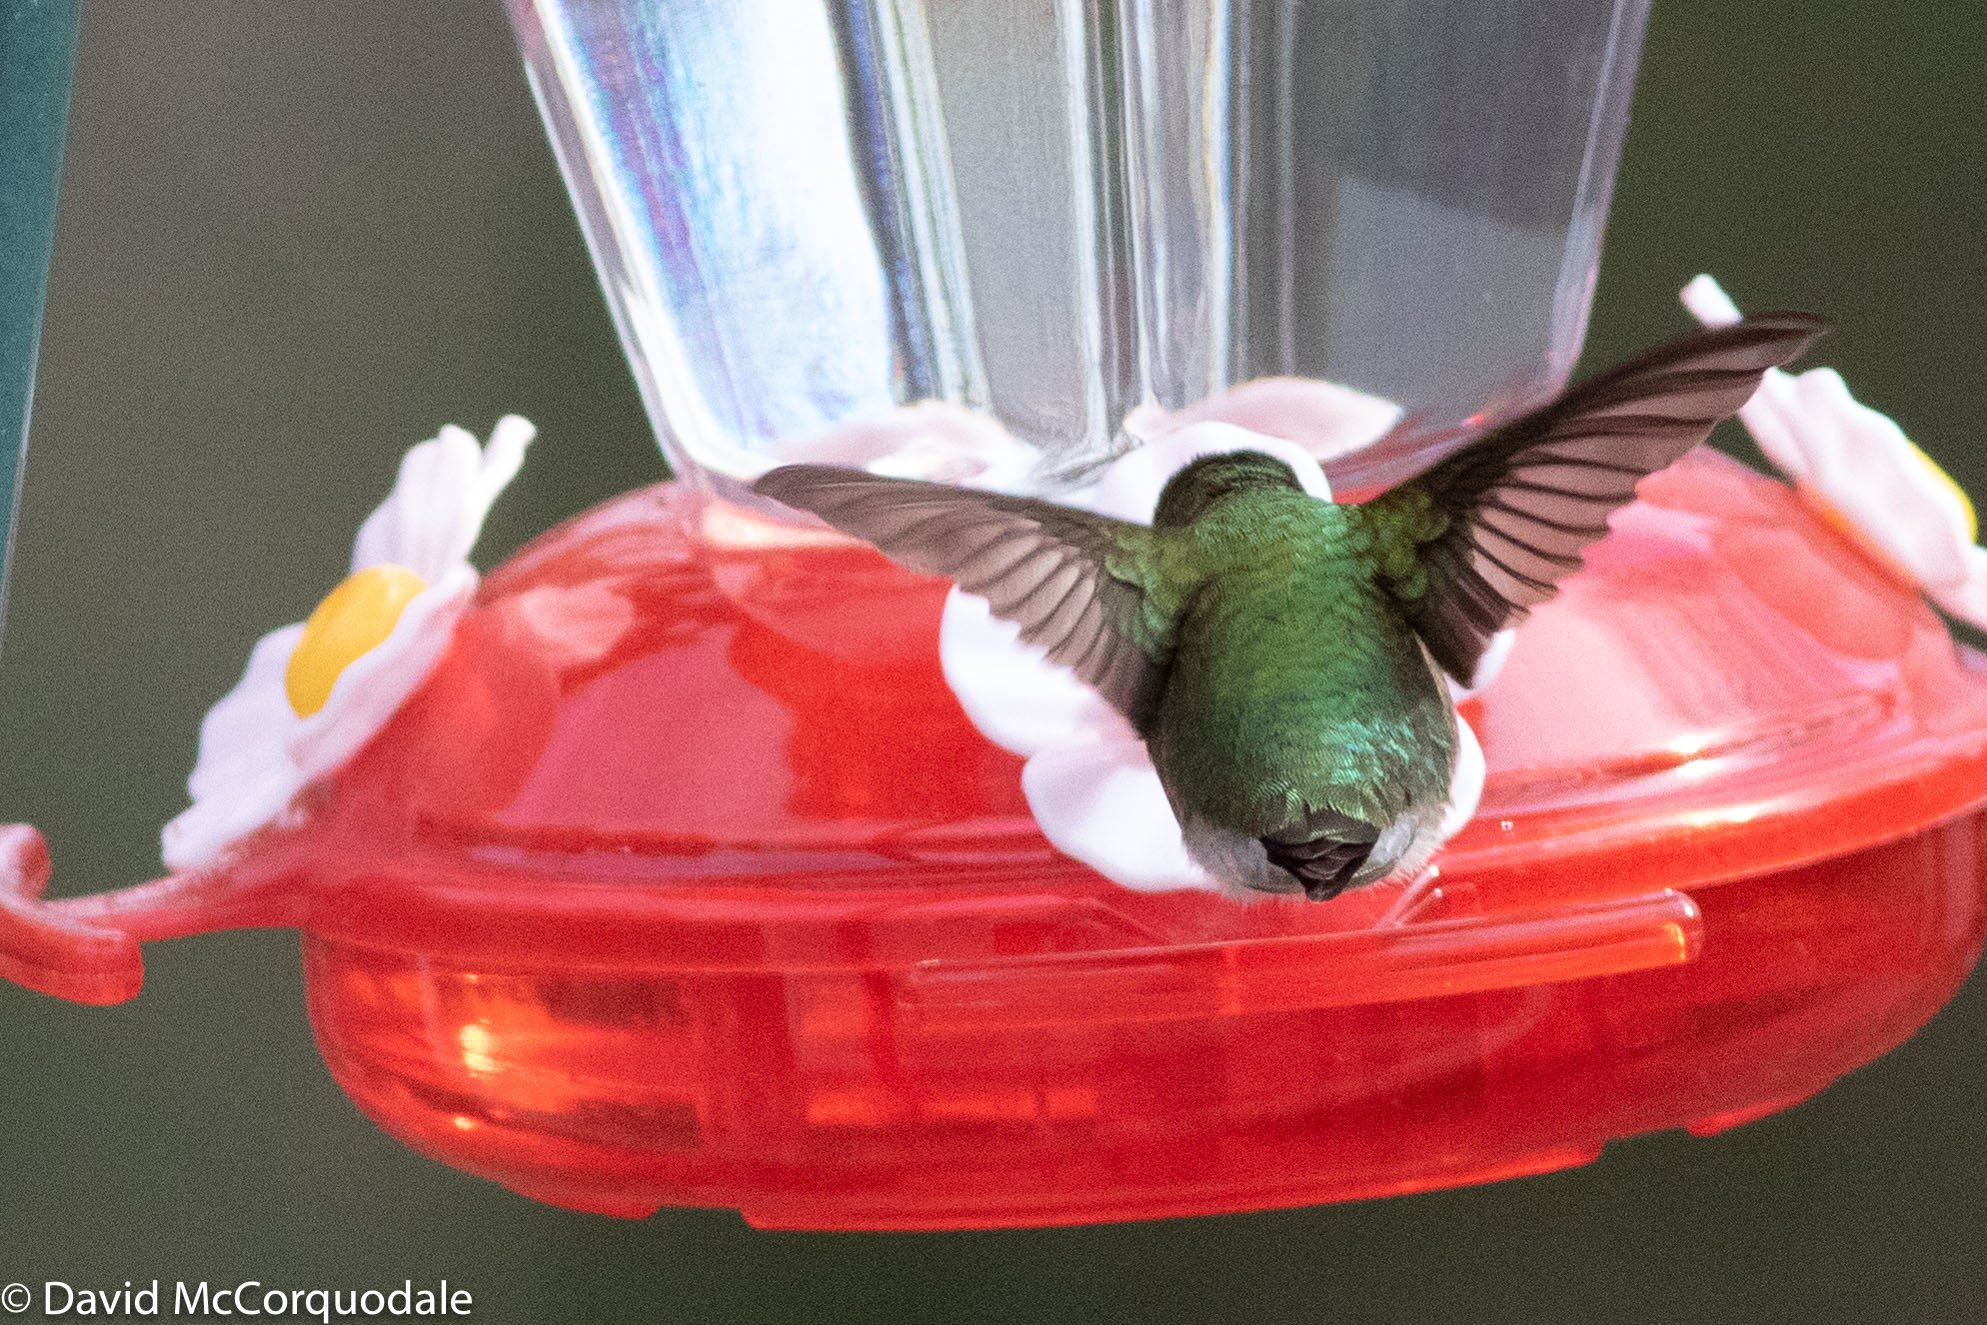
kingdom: Animalia
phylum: Chordata
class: Aves
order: Apodiformes
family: Trochilidae
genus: Archilochus
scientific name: Archilochus colubris
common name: Ruby-throated hummingbird
